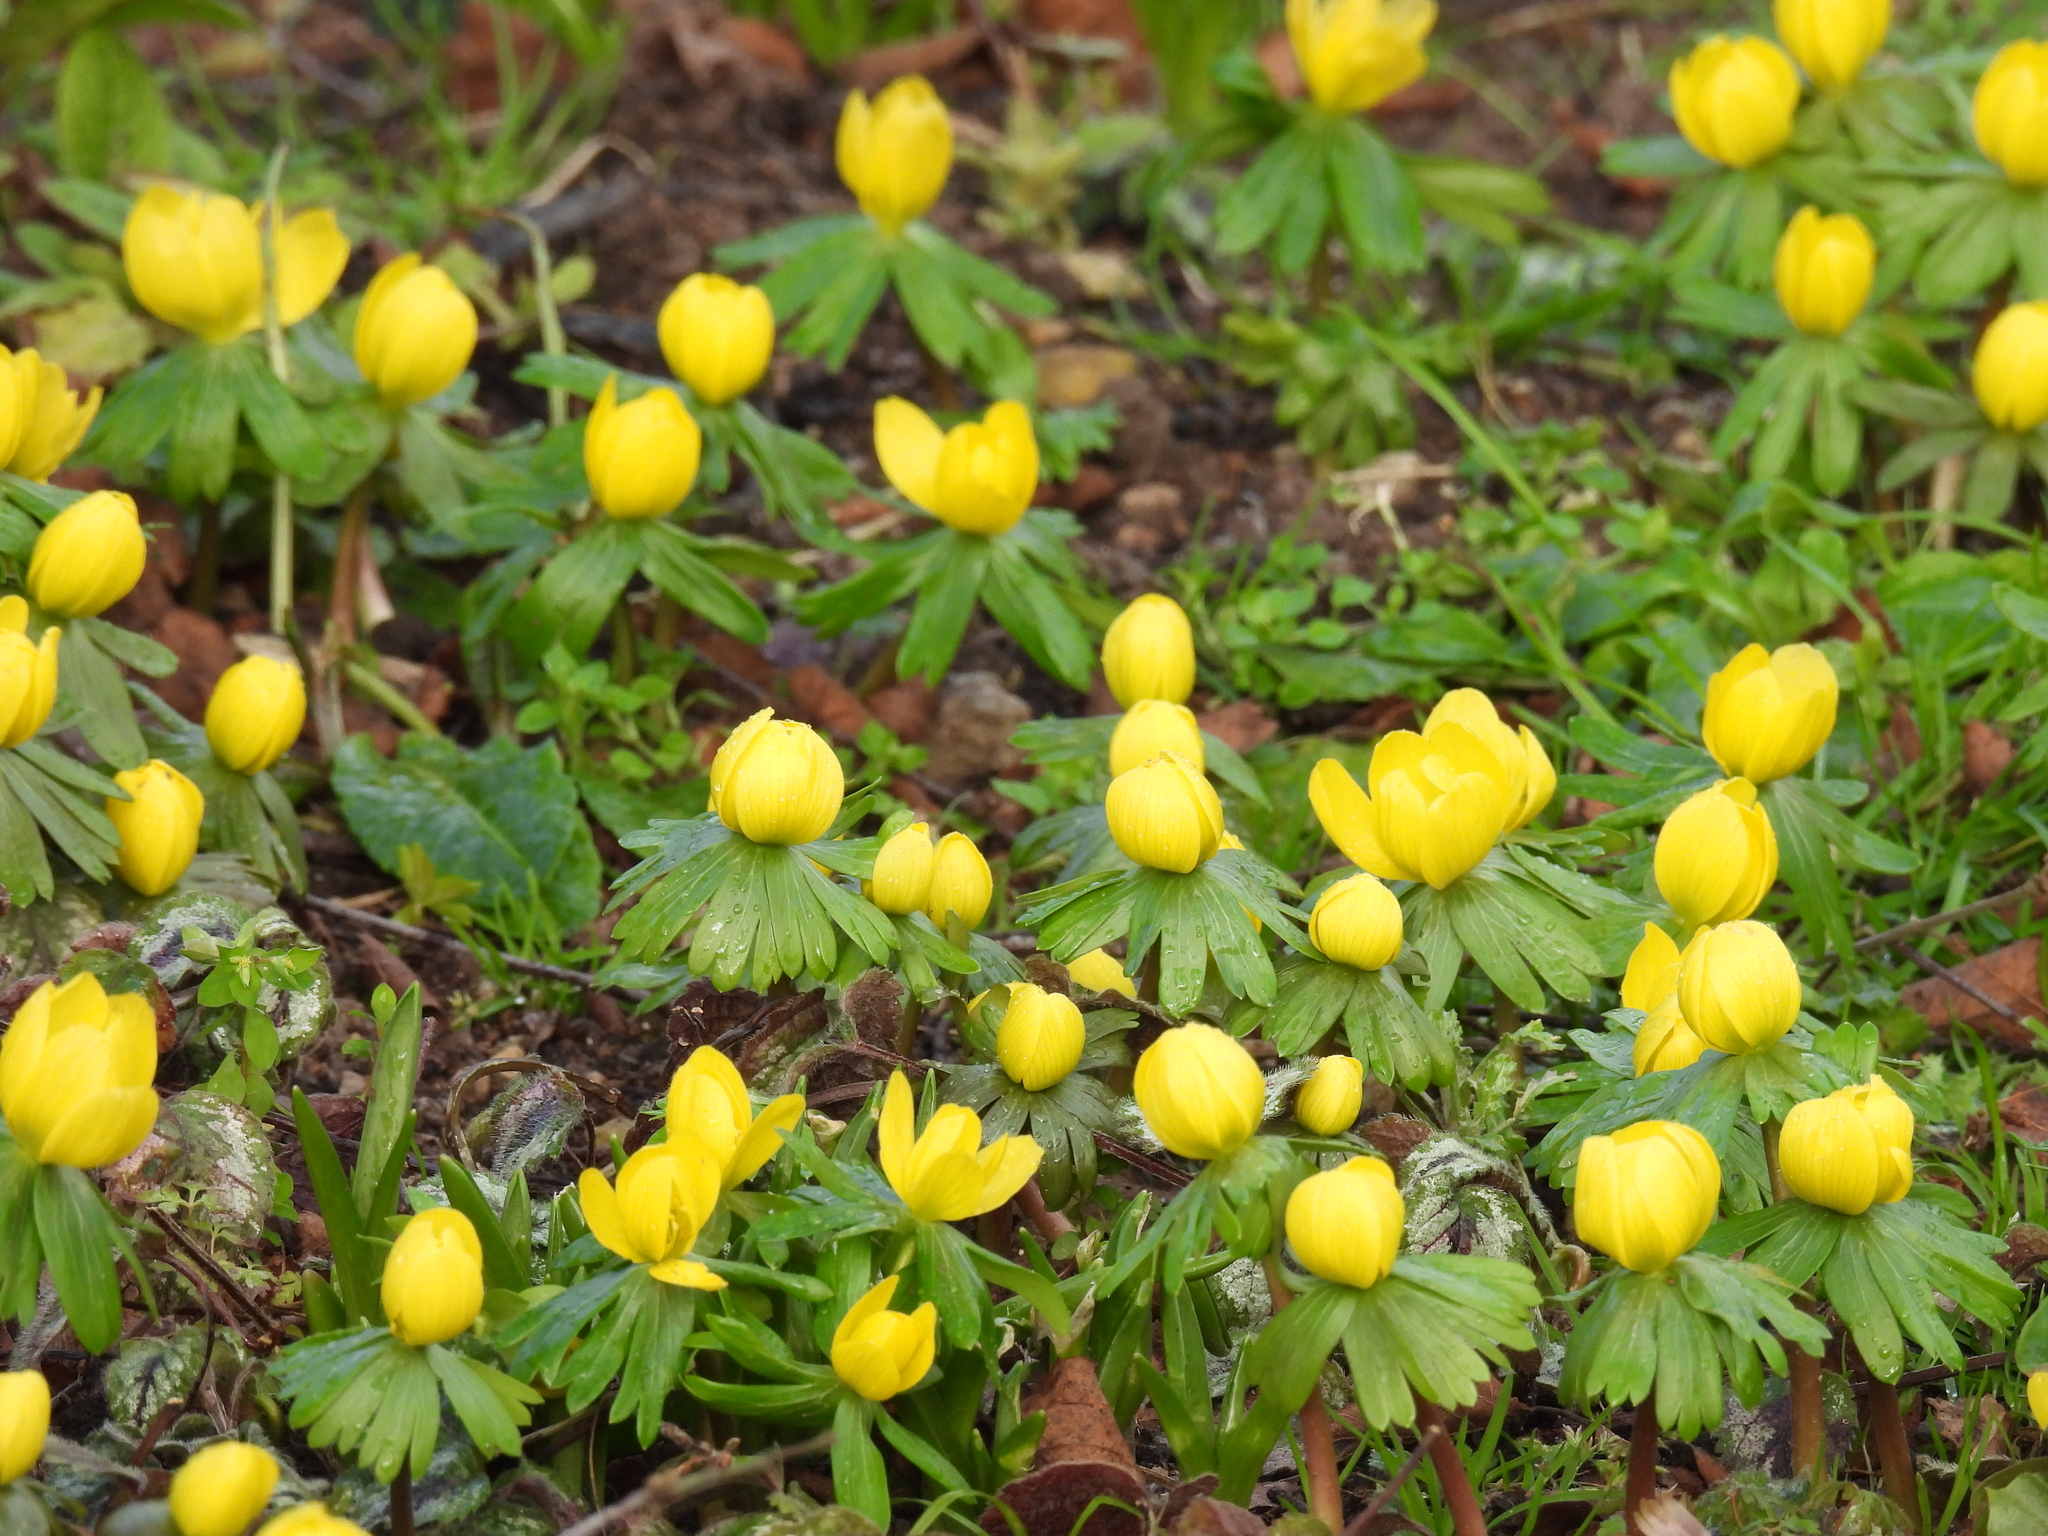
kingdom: Plantae
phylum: Tracheophyta
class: Magnoliopsida
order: Ranunculales
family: Ranunculaceae
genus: Eranthis
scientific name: Eranthis hyemalis
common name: Winter aconite
